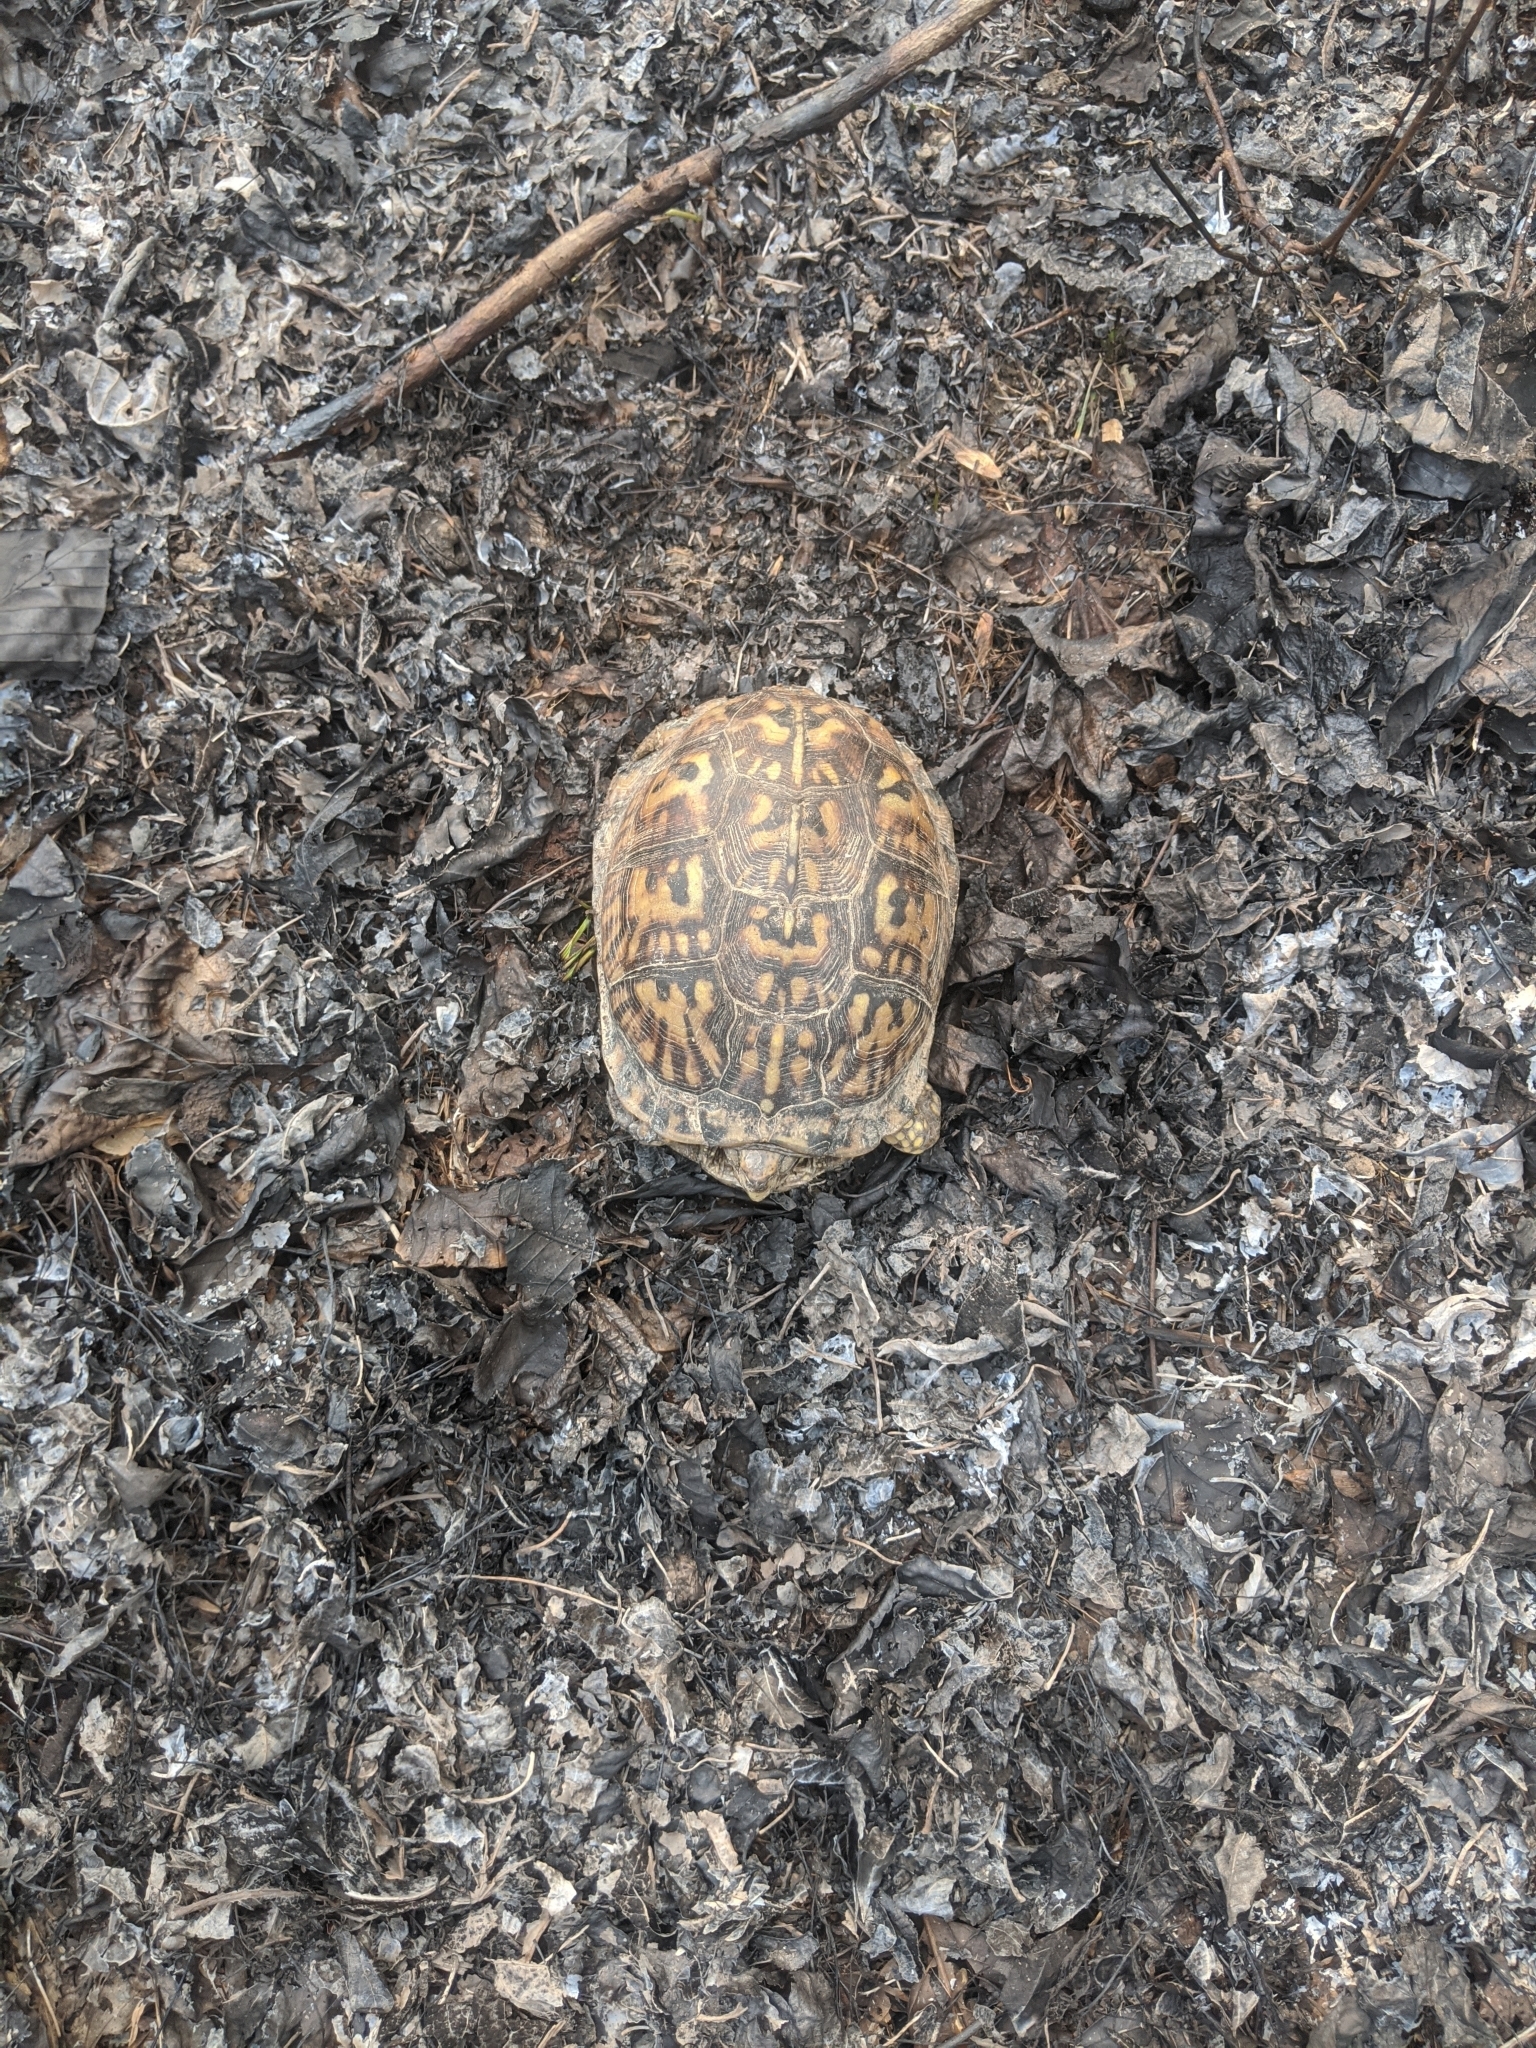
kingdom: Animalia
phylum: Chordata
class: Testudines
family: Emydidae
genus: Terrapene
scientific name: Terrapene carolina
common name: Common box turtle
